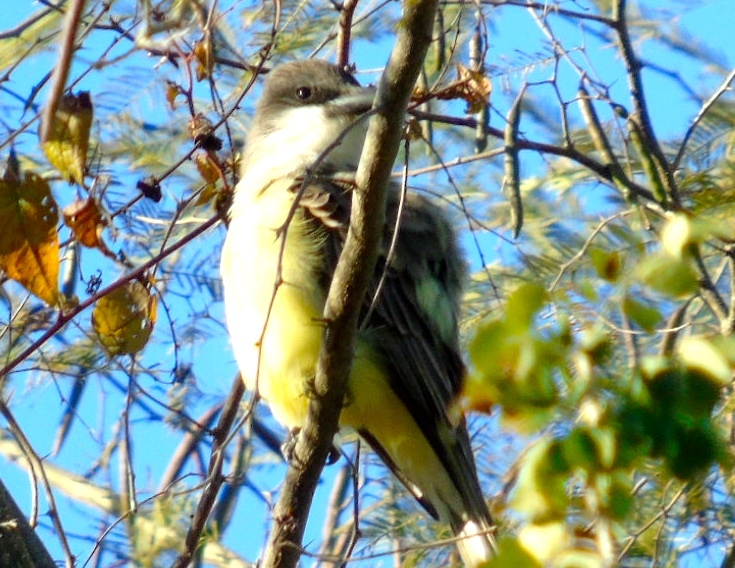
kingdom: Animalia
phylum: Chordata
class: Aves
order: Passeriformes
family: Tyrannidae
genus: Tyrannus
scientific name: Tyrannus crassirostris
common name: Thick-billed kingbird
